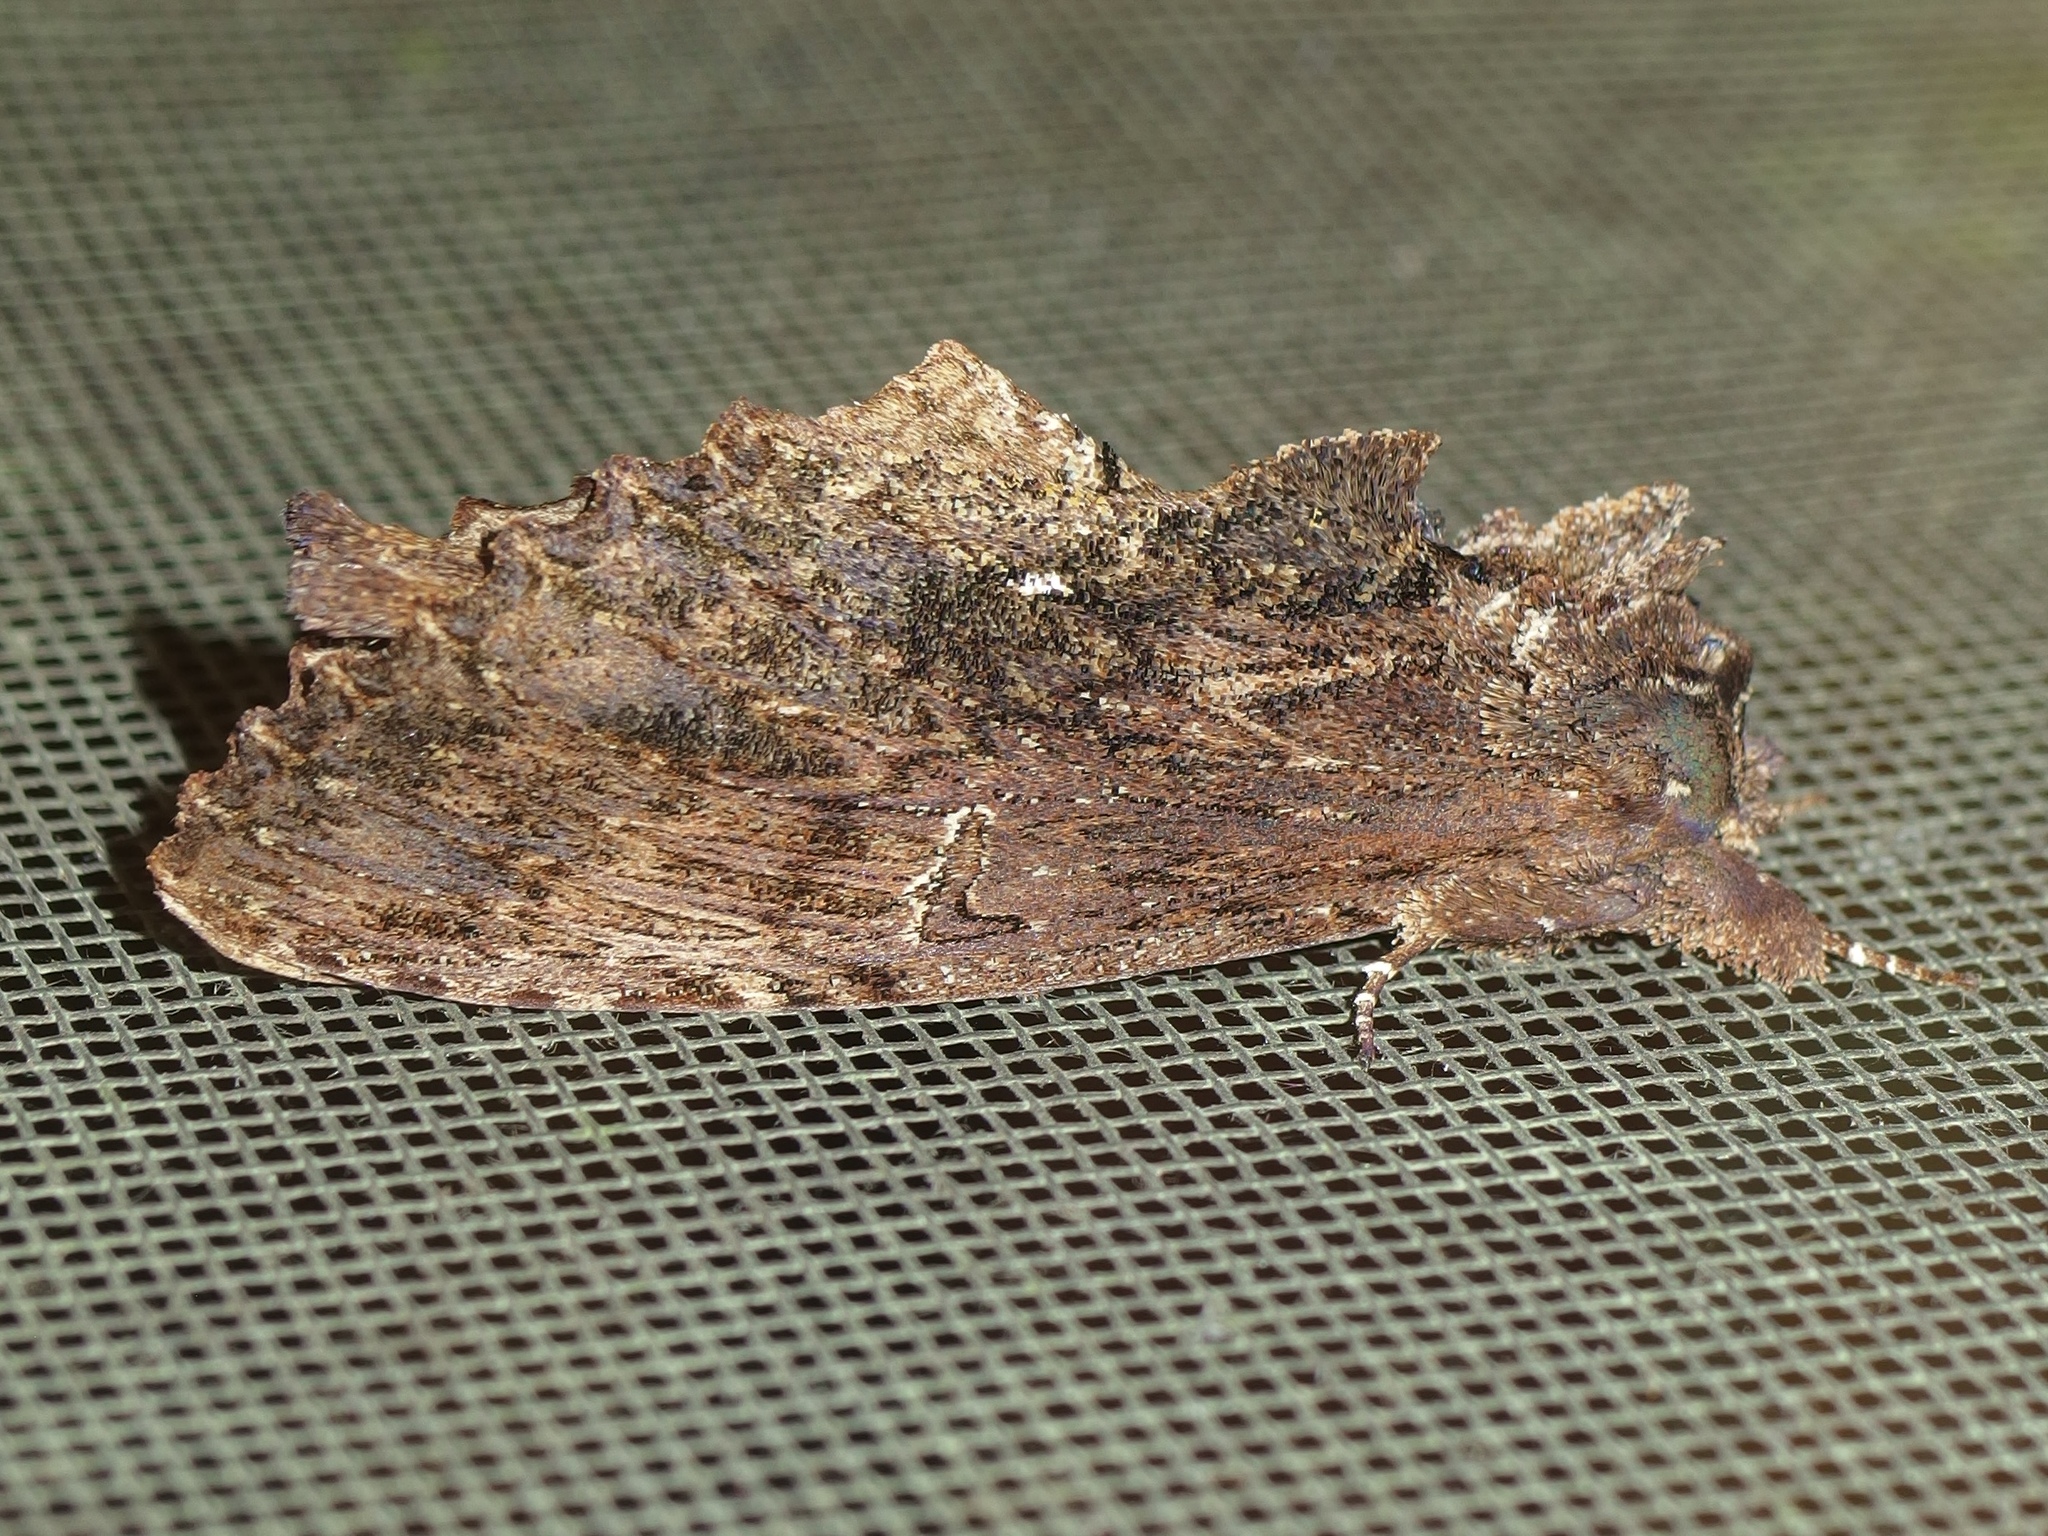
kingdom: Animalia
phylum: Arthropoda
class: Insecta
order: Lepidoptera
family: Bombycidae
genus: Naprepa
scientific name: Naprepa flexifera
